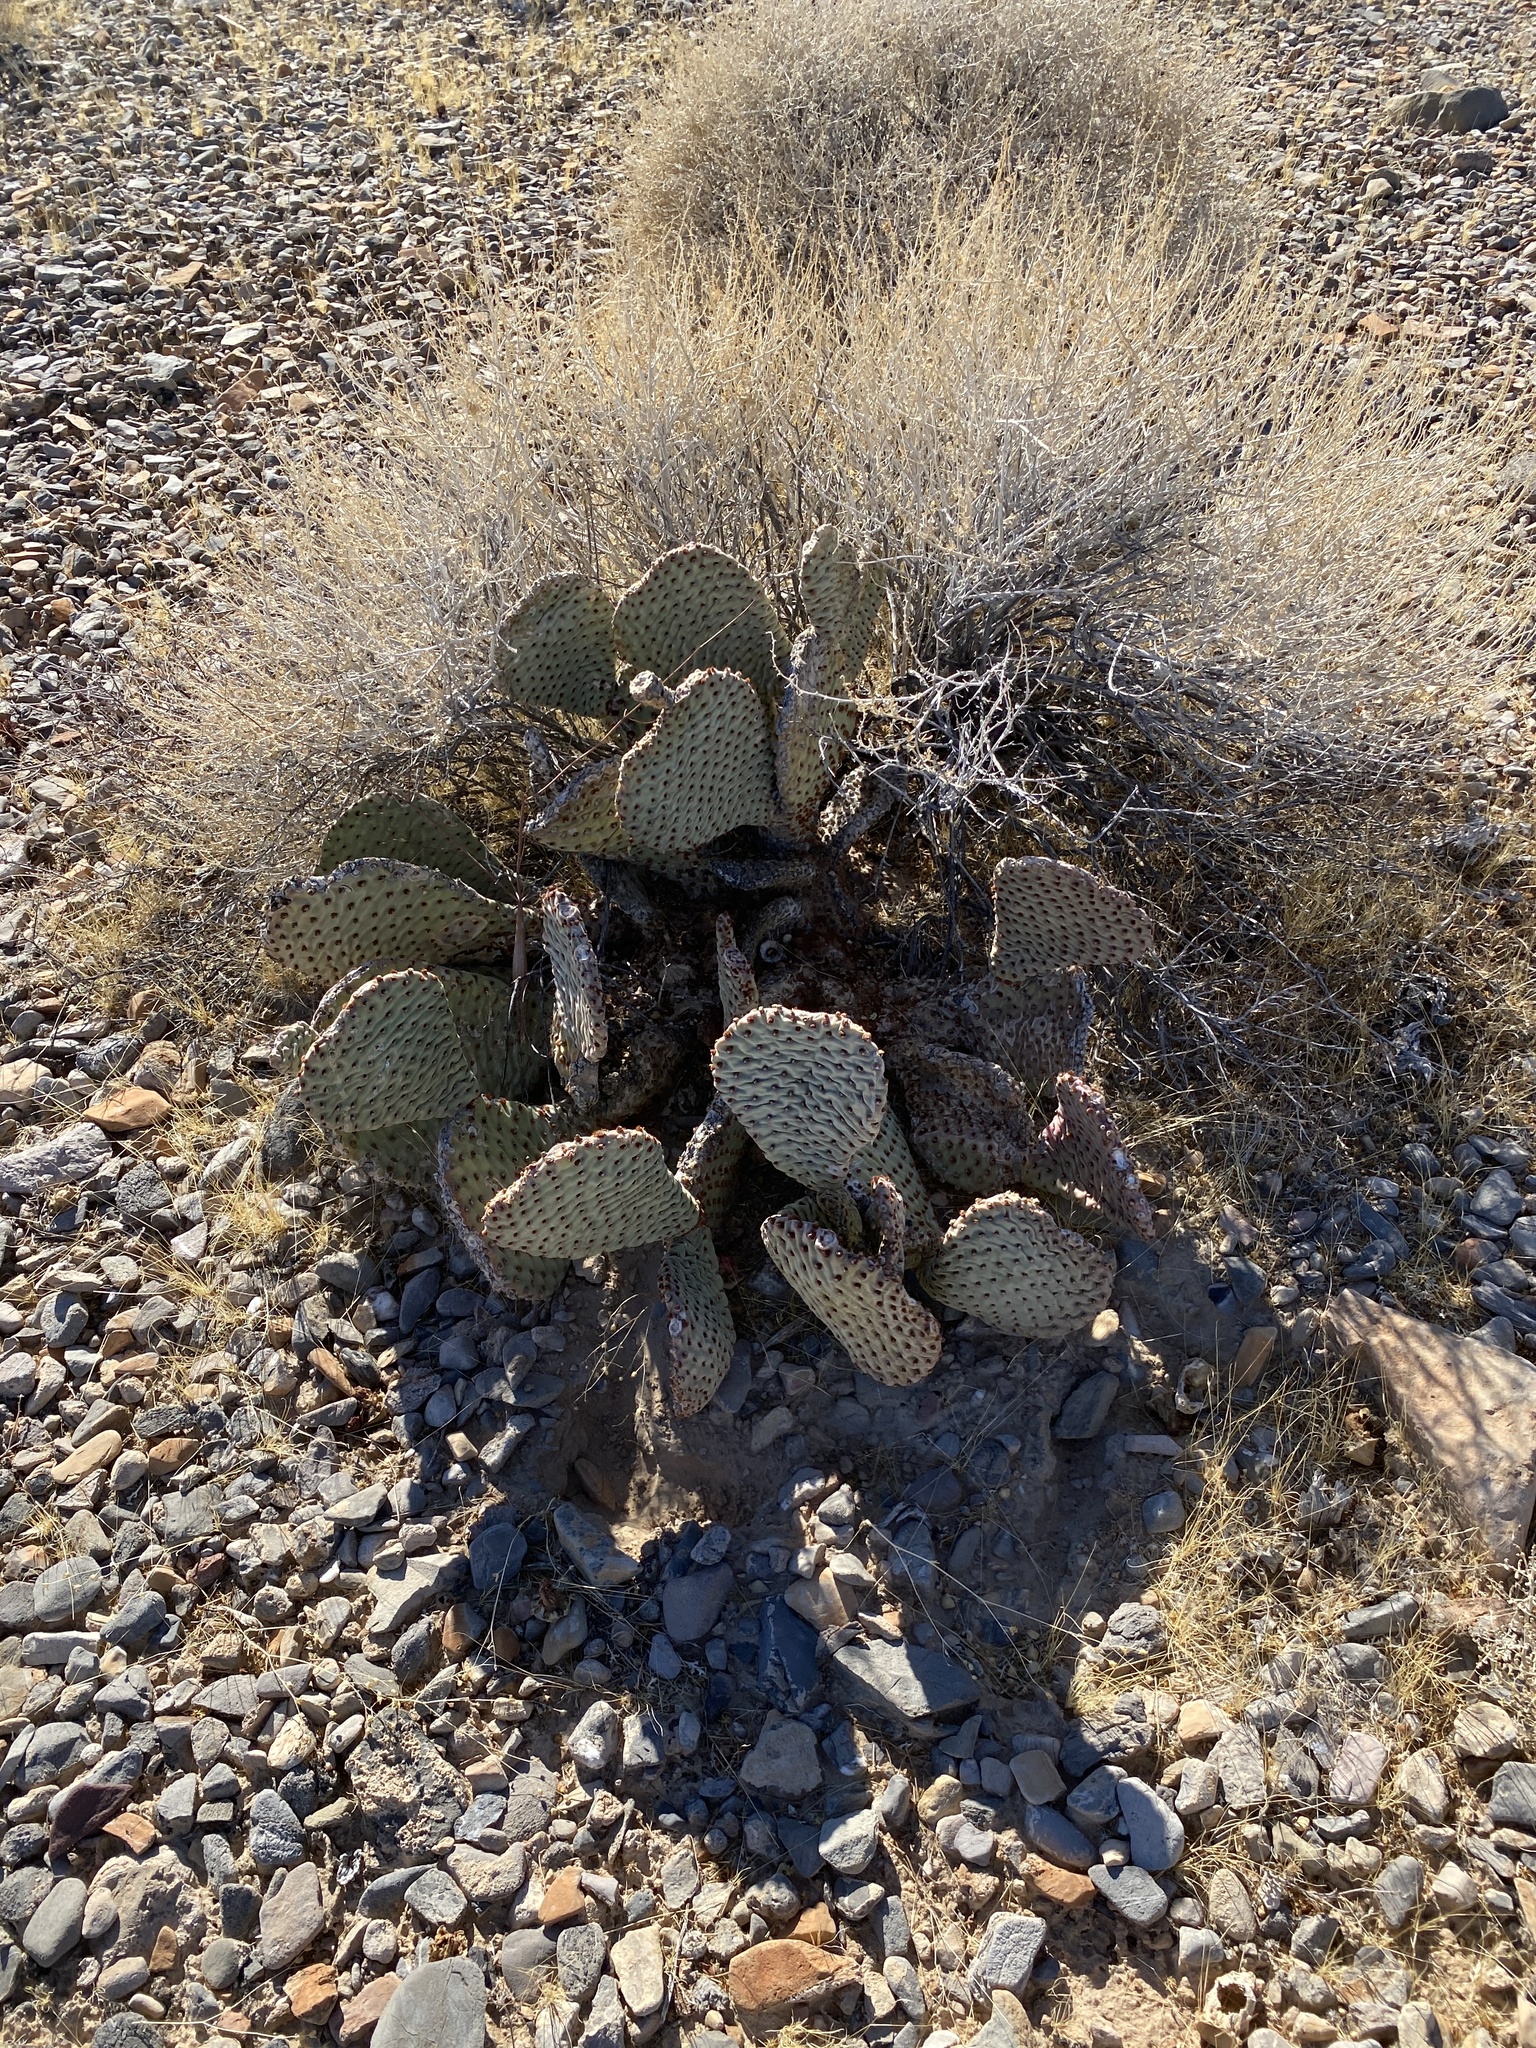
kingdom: Plantae
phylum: Tracheophyta
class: Magnoliopsida
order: Caryophyllales
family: Cactaceae
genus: Opuntia
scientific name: Opuntia basilaris
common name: Beavertail prickly-pear
